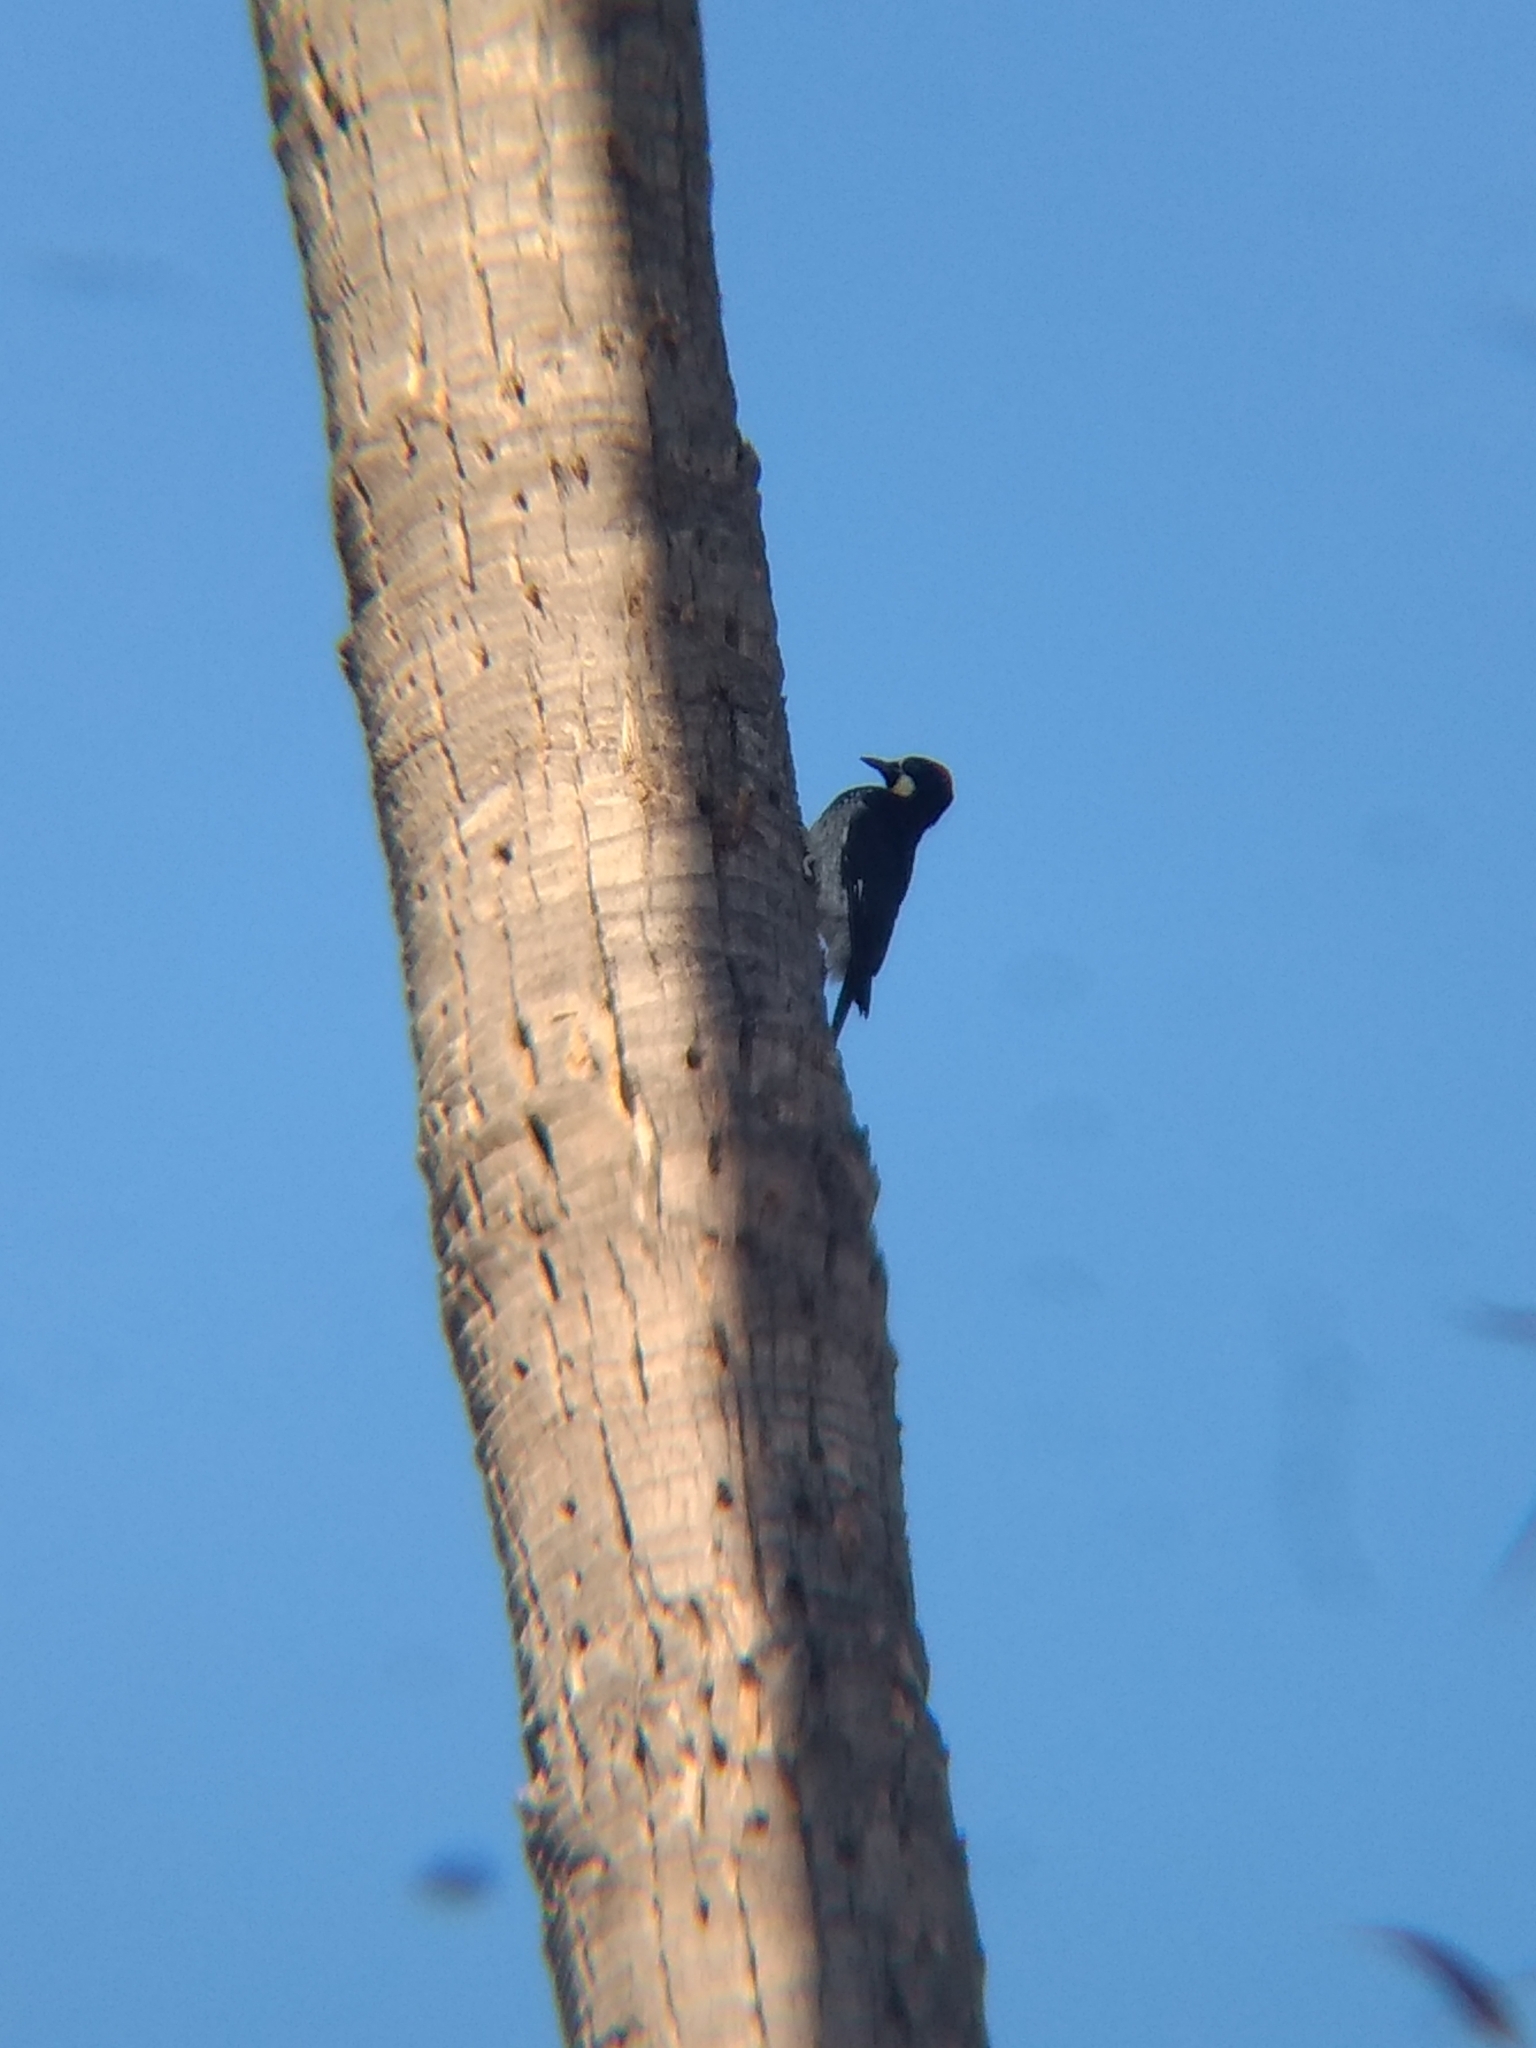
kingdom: Animalia
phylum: Chordata
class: Aves
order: Piciformes
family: Picidae
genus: Melanerpes
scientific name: Melanerpes formicivorus
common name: Acorn woodpecker
